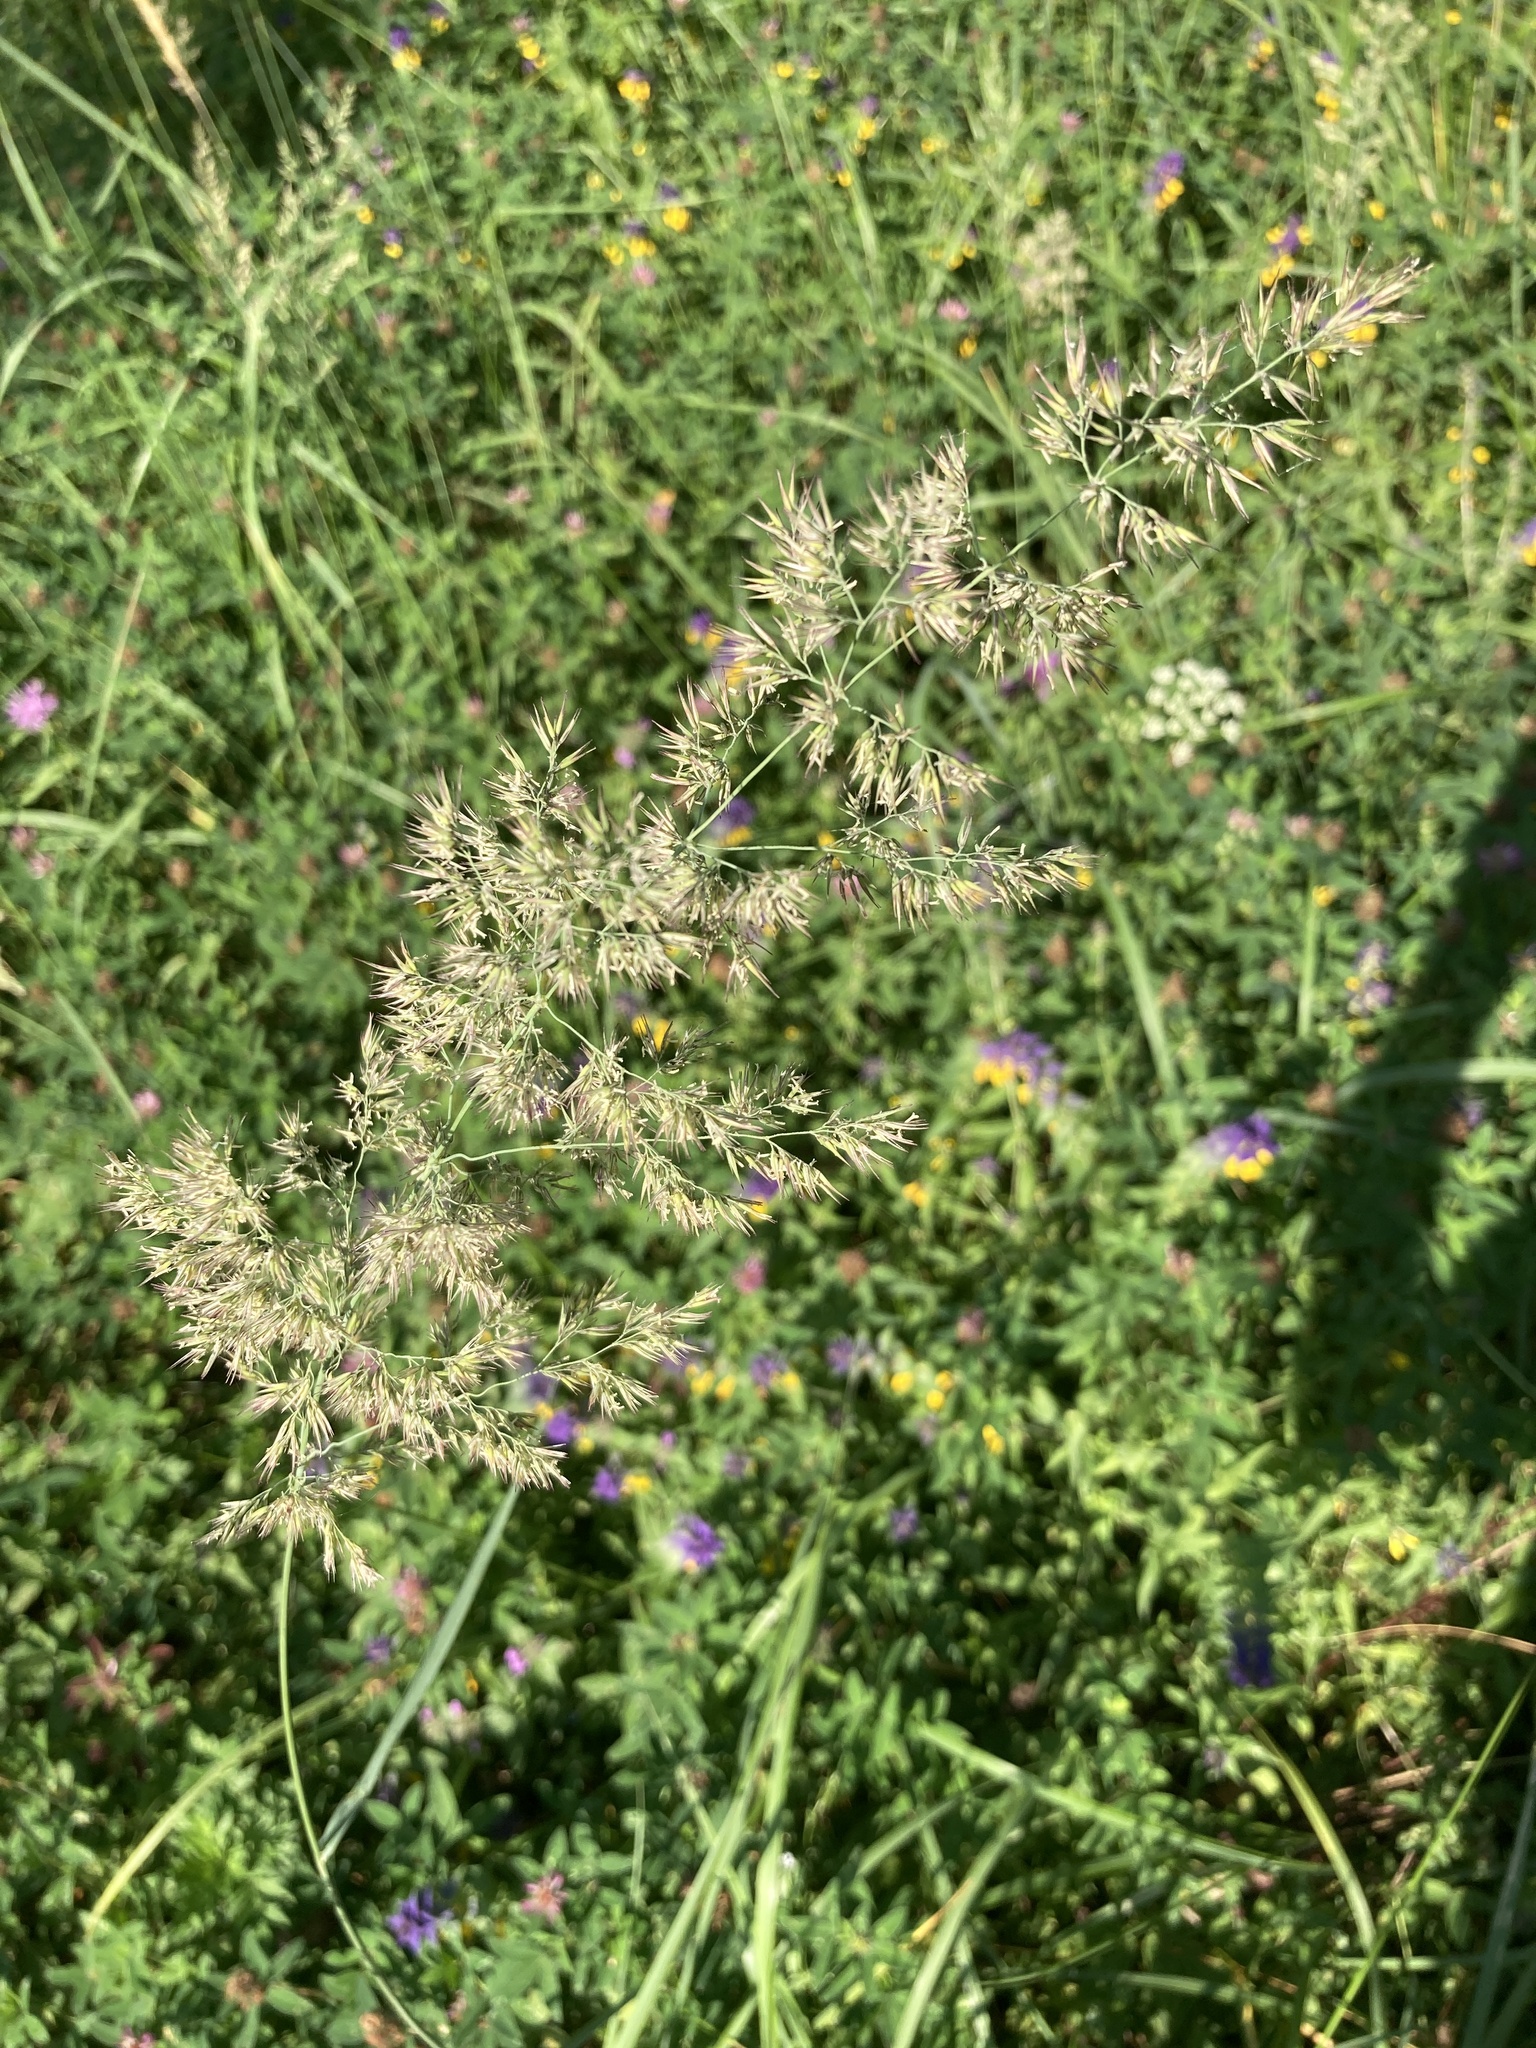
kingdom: Plantae
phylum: Tracheophyta
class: Liliopsida
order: Poales
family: Poaceae
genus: Calamagrostis
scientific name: Calamagrostis epigejos
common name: Wood small-reed
